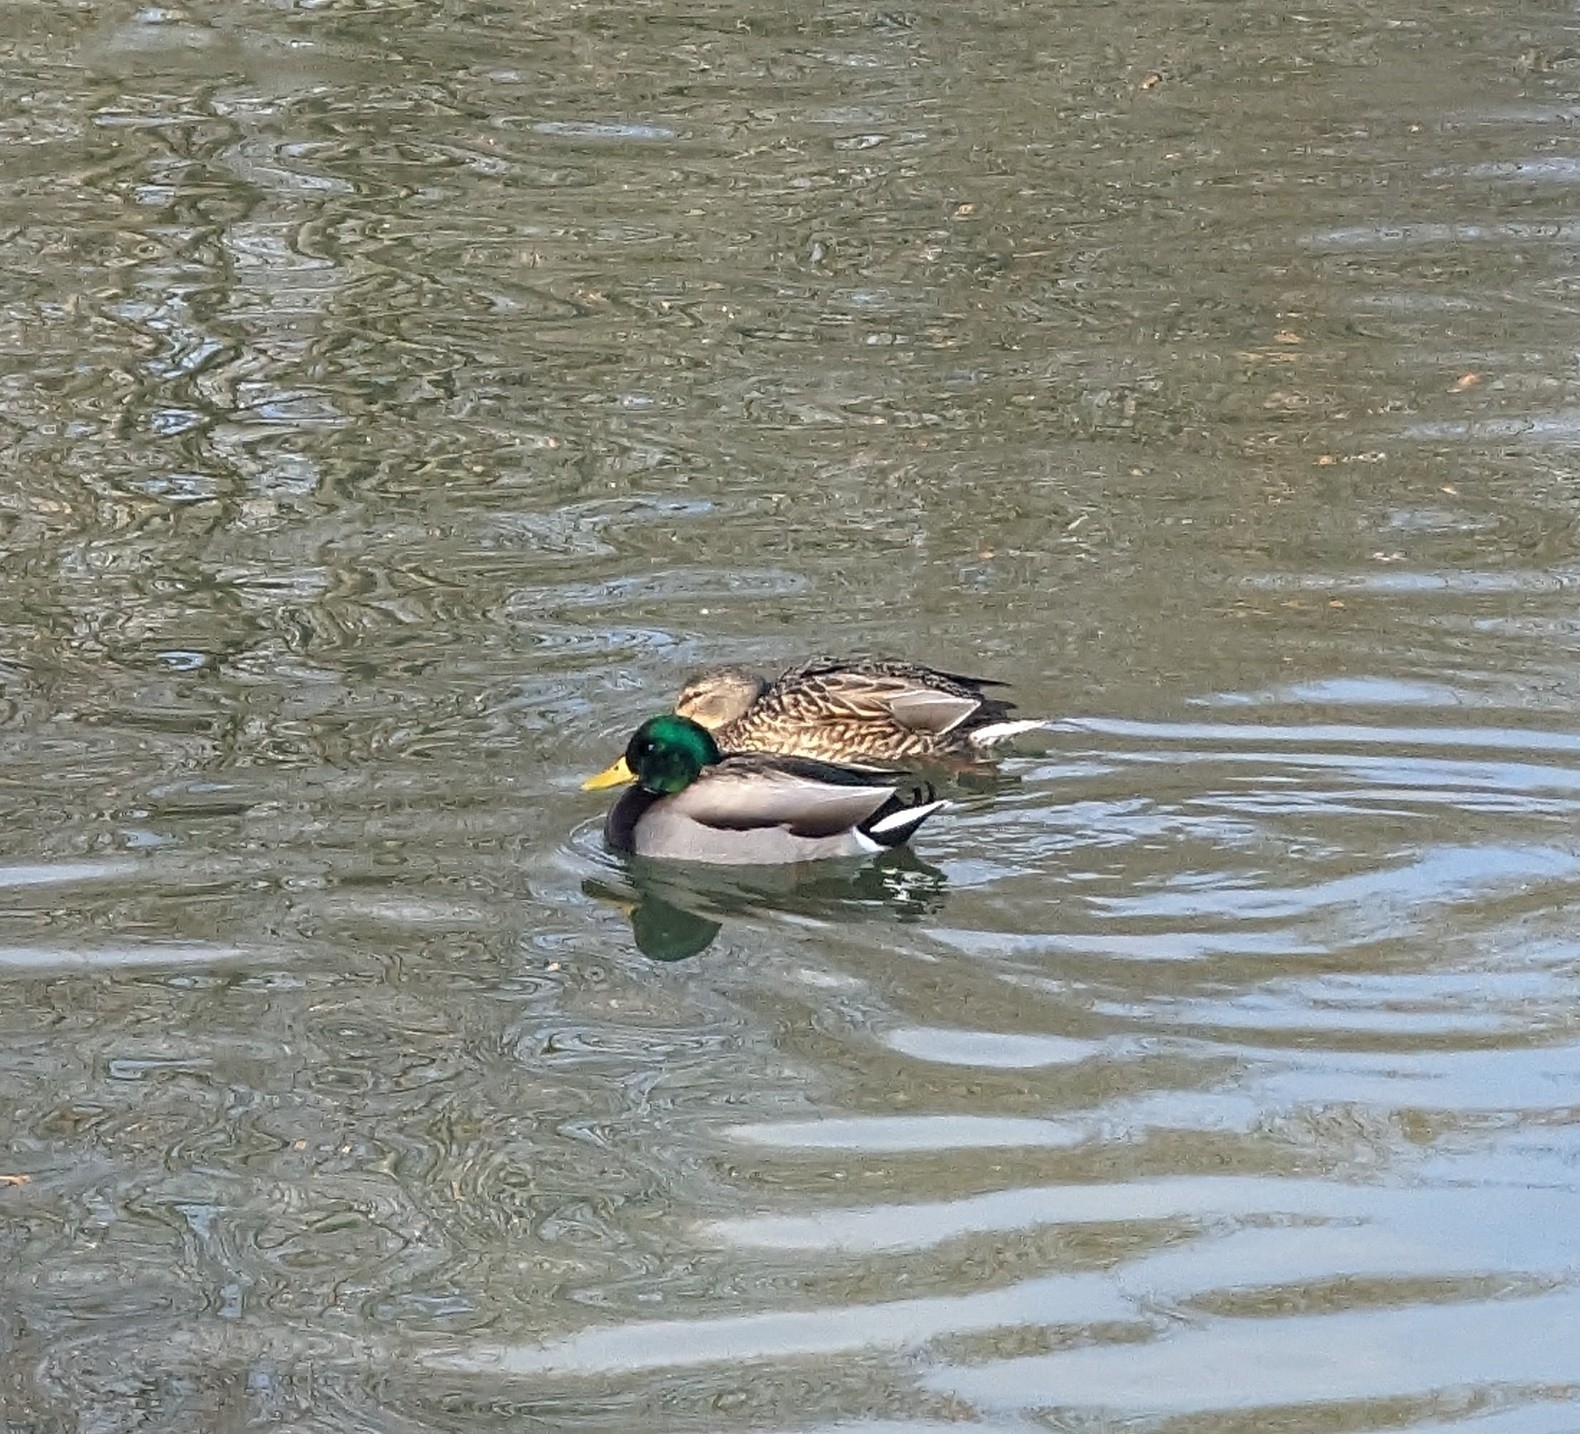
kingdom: Animalia
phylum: Chordata
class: Aves
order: Anseriformes
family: Anatidae
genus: Anas
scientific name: Anas platyrhynchos
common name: Mallard
